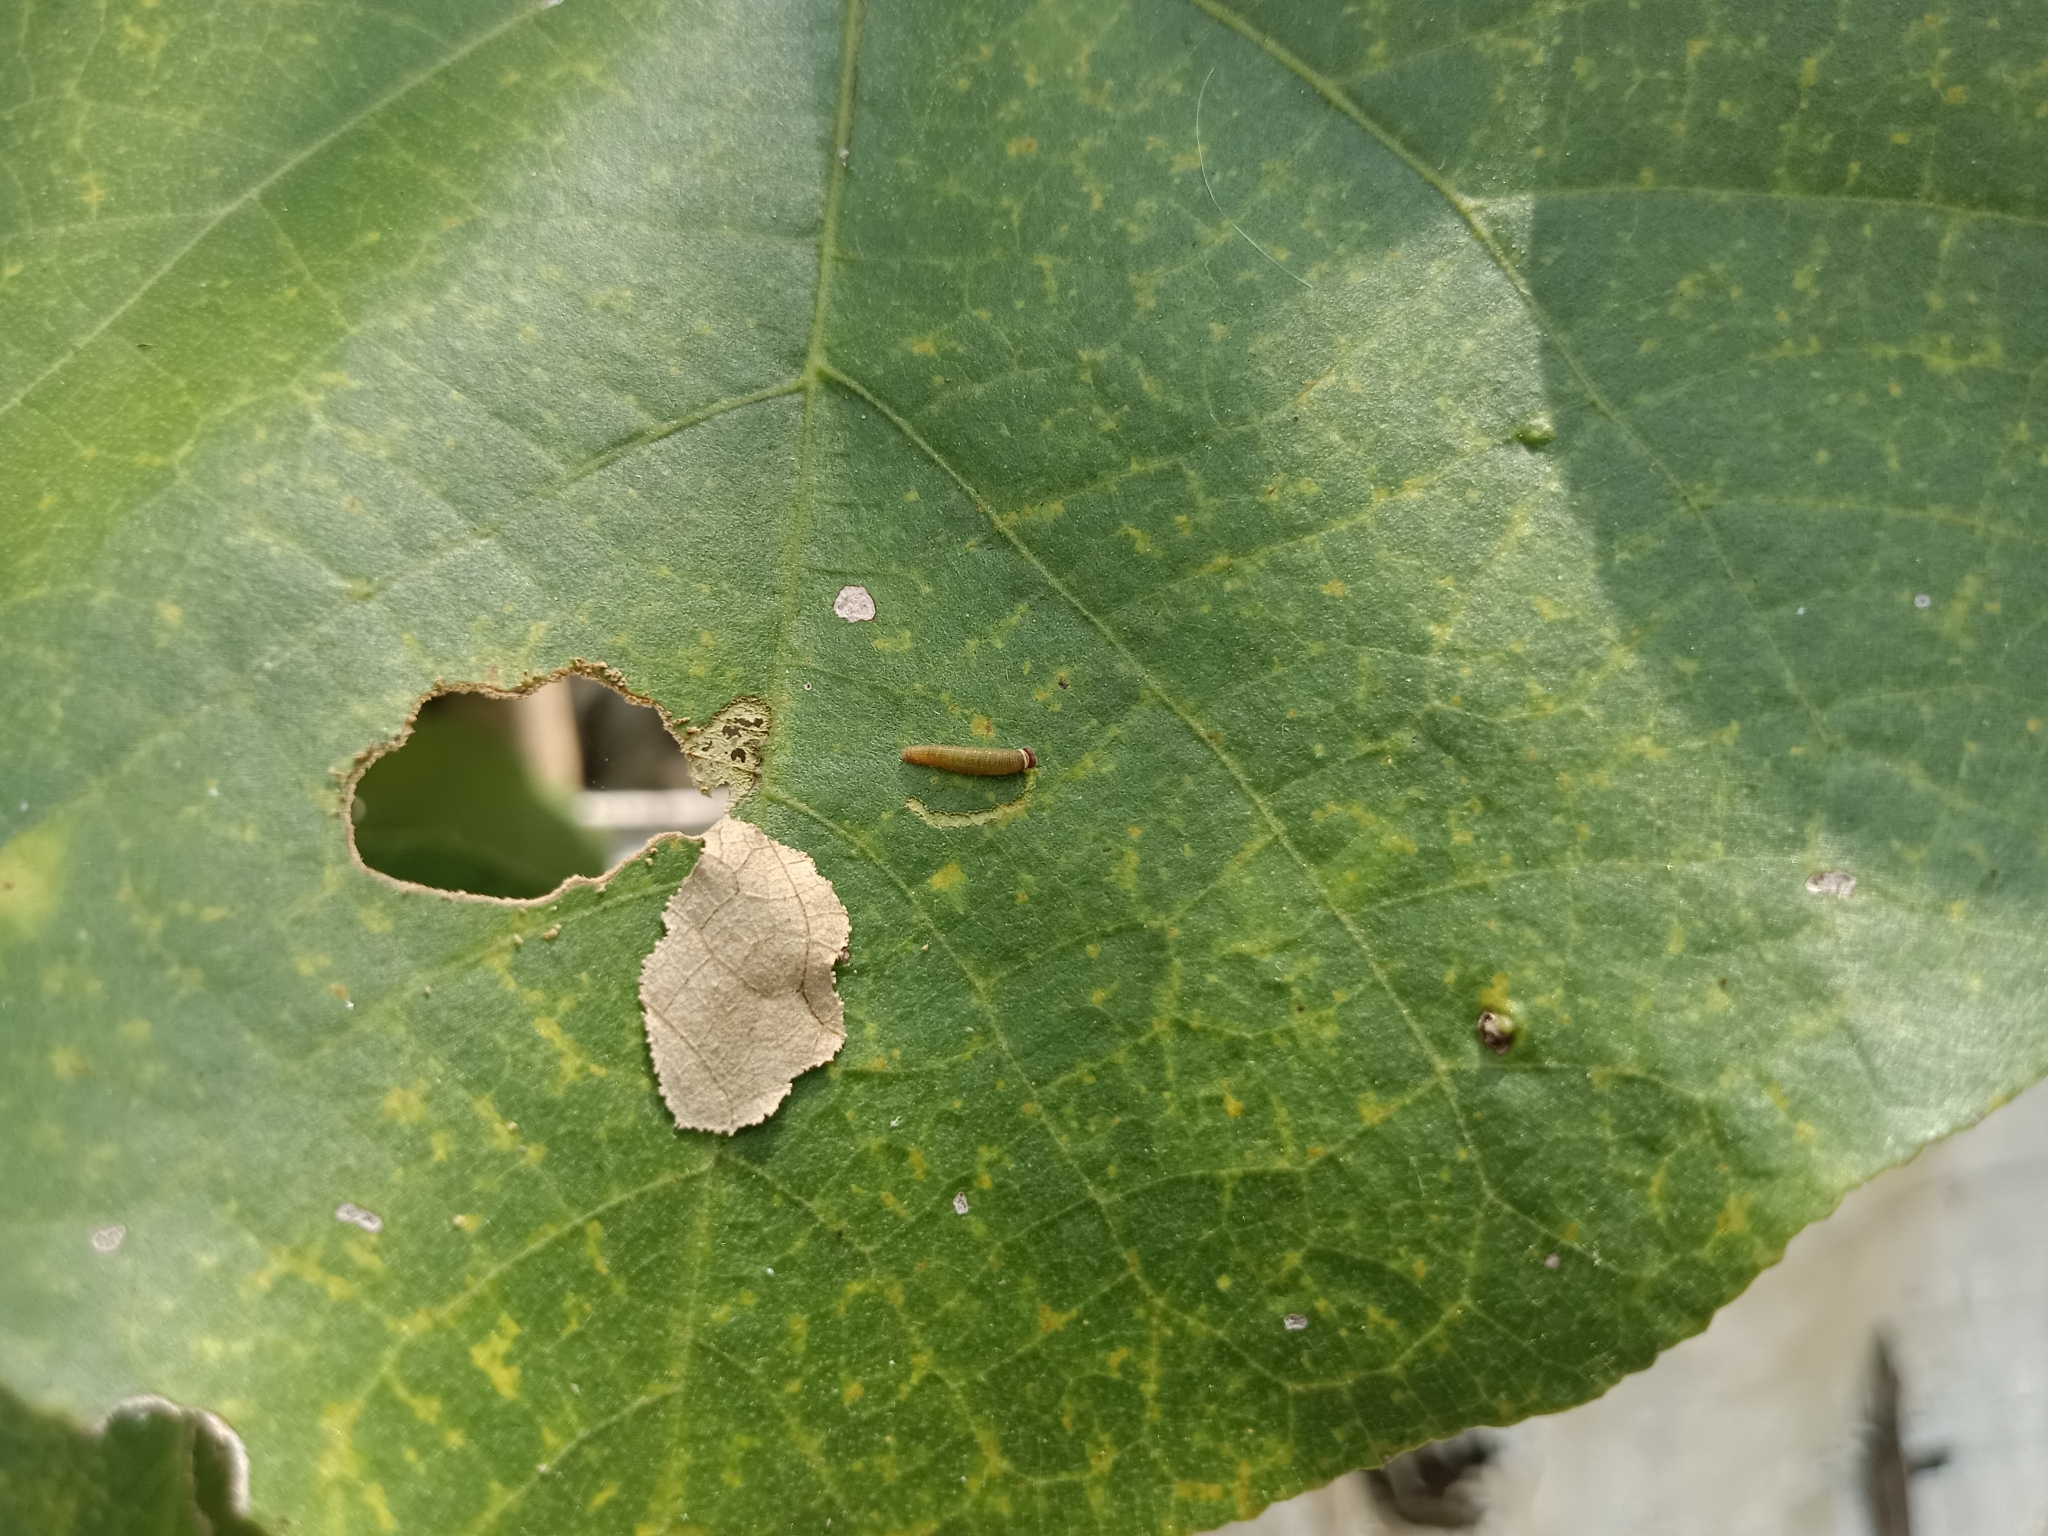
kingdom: Animalia
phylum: Arthropoda
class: Insecta
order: Lepidoptera
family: Hesperiidae
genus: Coladenia
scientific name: Coladenia
